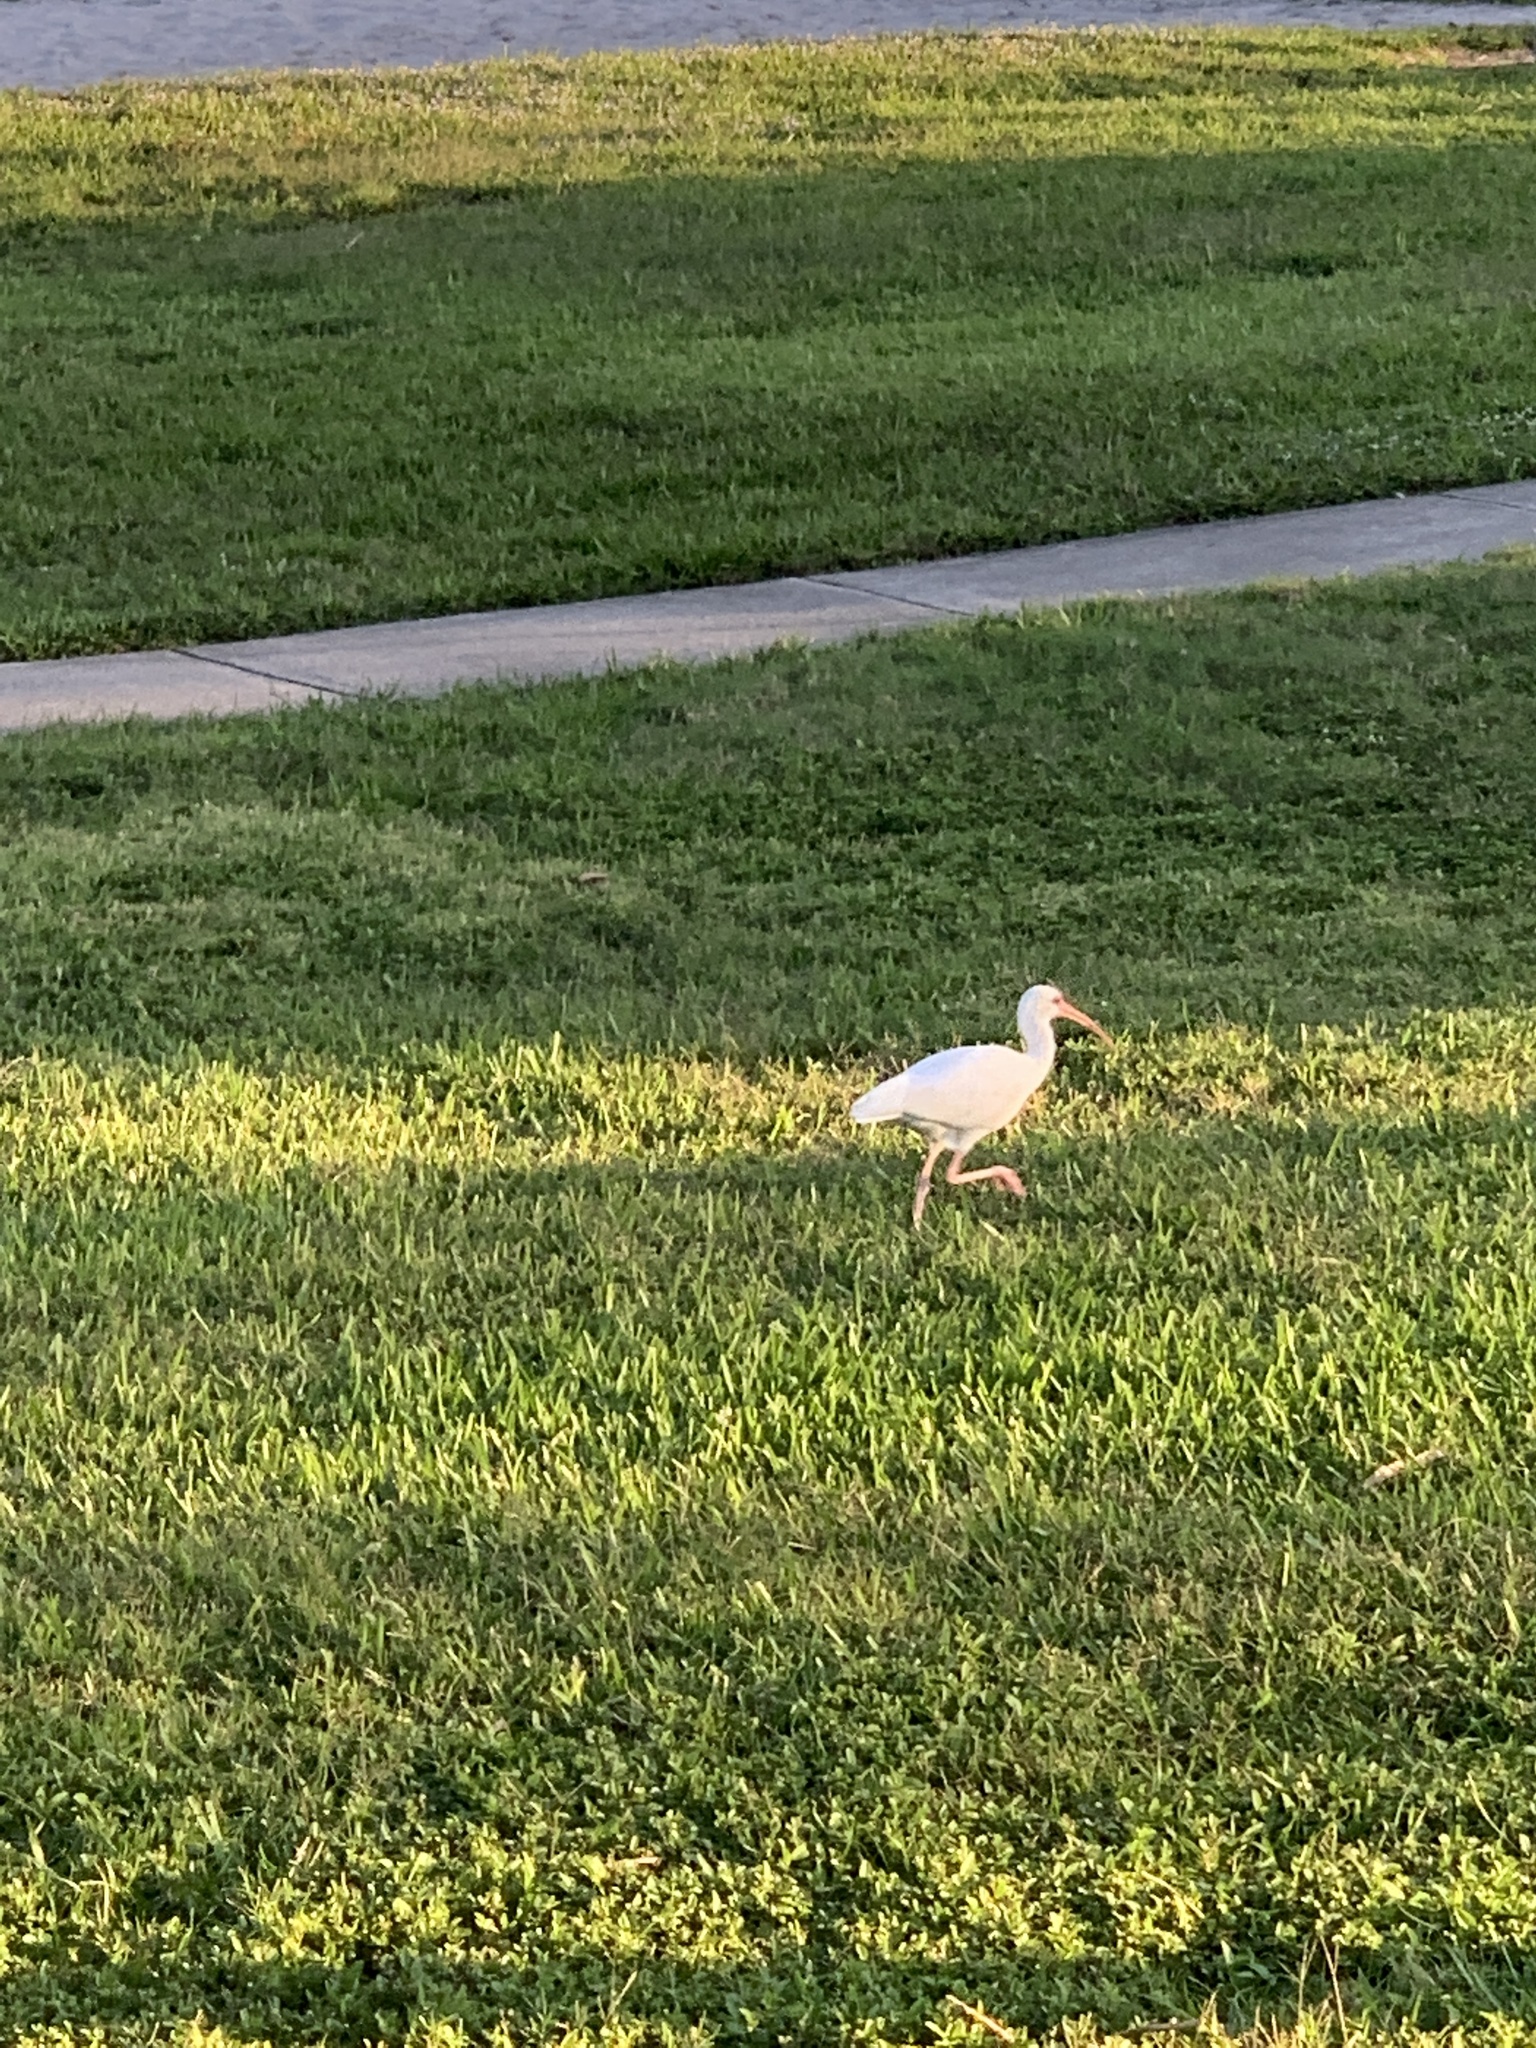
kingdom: Animalia
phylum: Chordata
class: Aves
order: Pelecaniformes
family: Threskiornithidae
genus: Eudocimus
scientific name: Eudocimus albus
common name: White ibis
